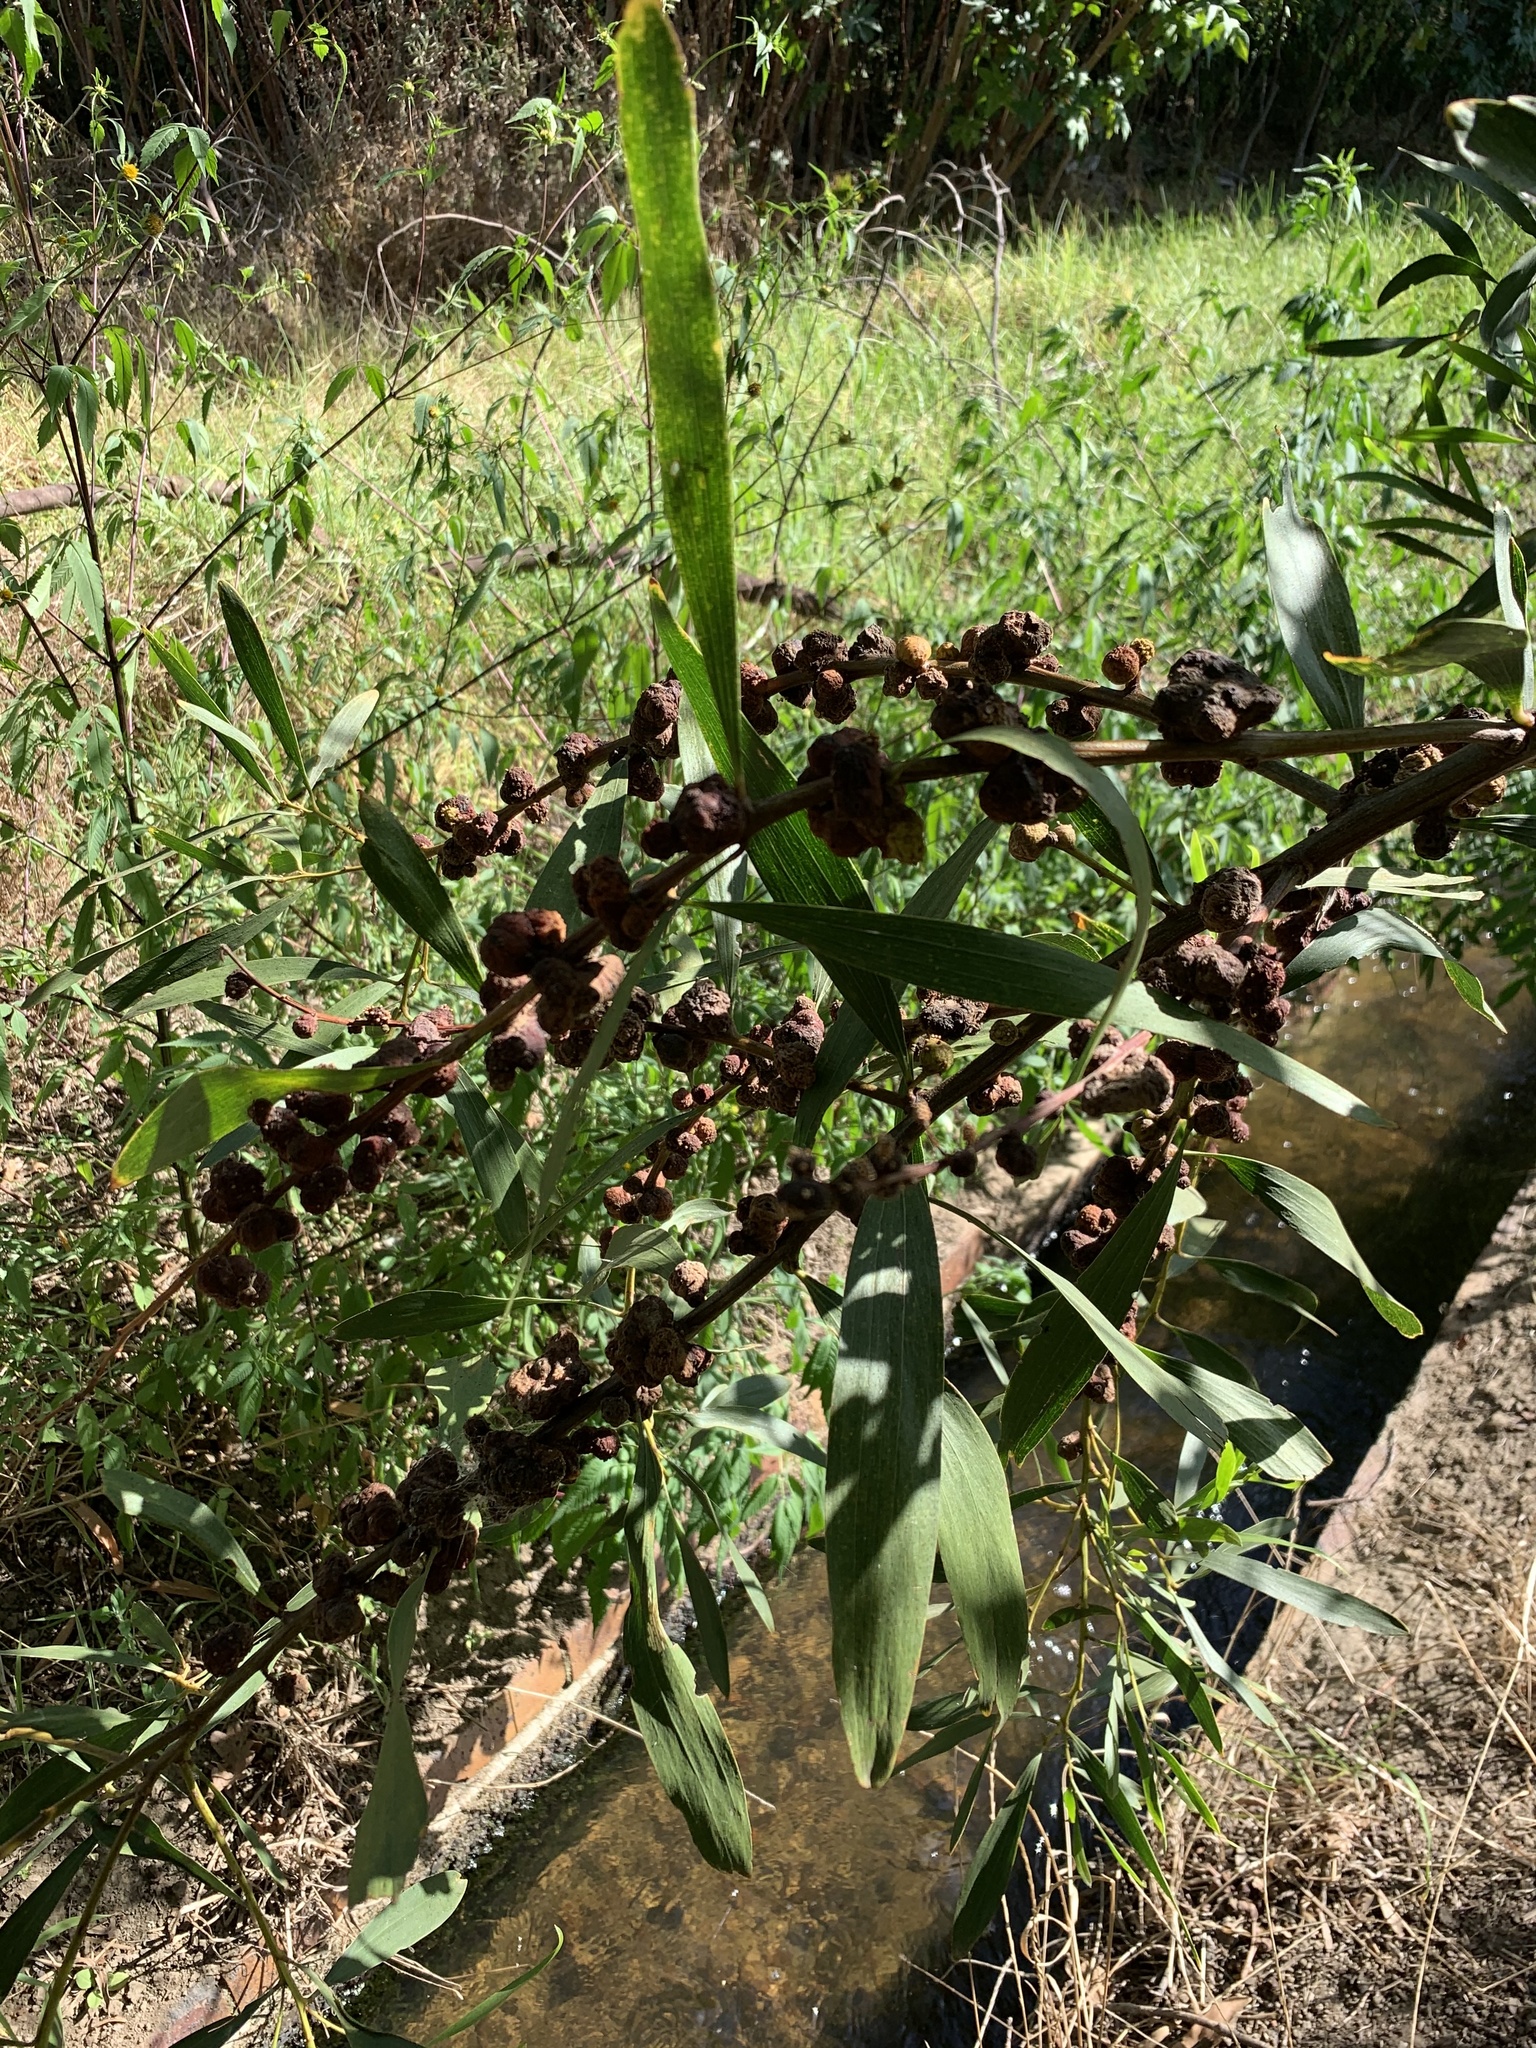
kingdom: Plantae
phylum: Tracheophyta
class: Magnoliopsida
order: Fabales
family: Fabaceae
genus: Acacia
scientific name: Acacia longifolia
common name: Sydney golden wattle
